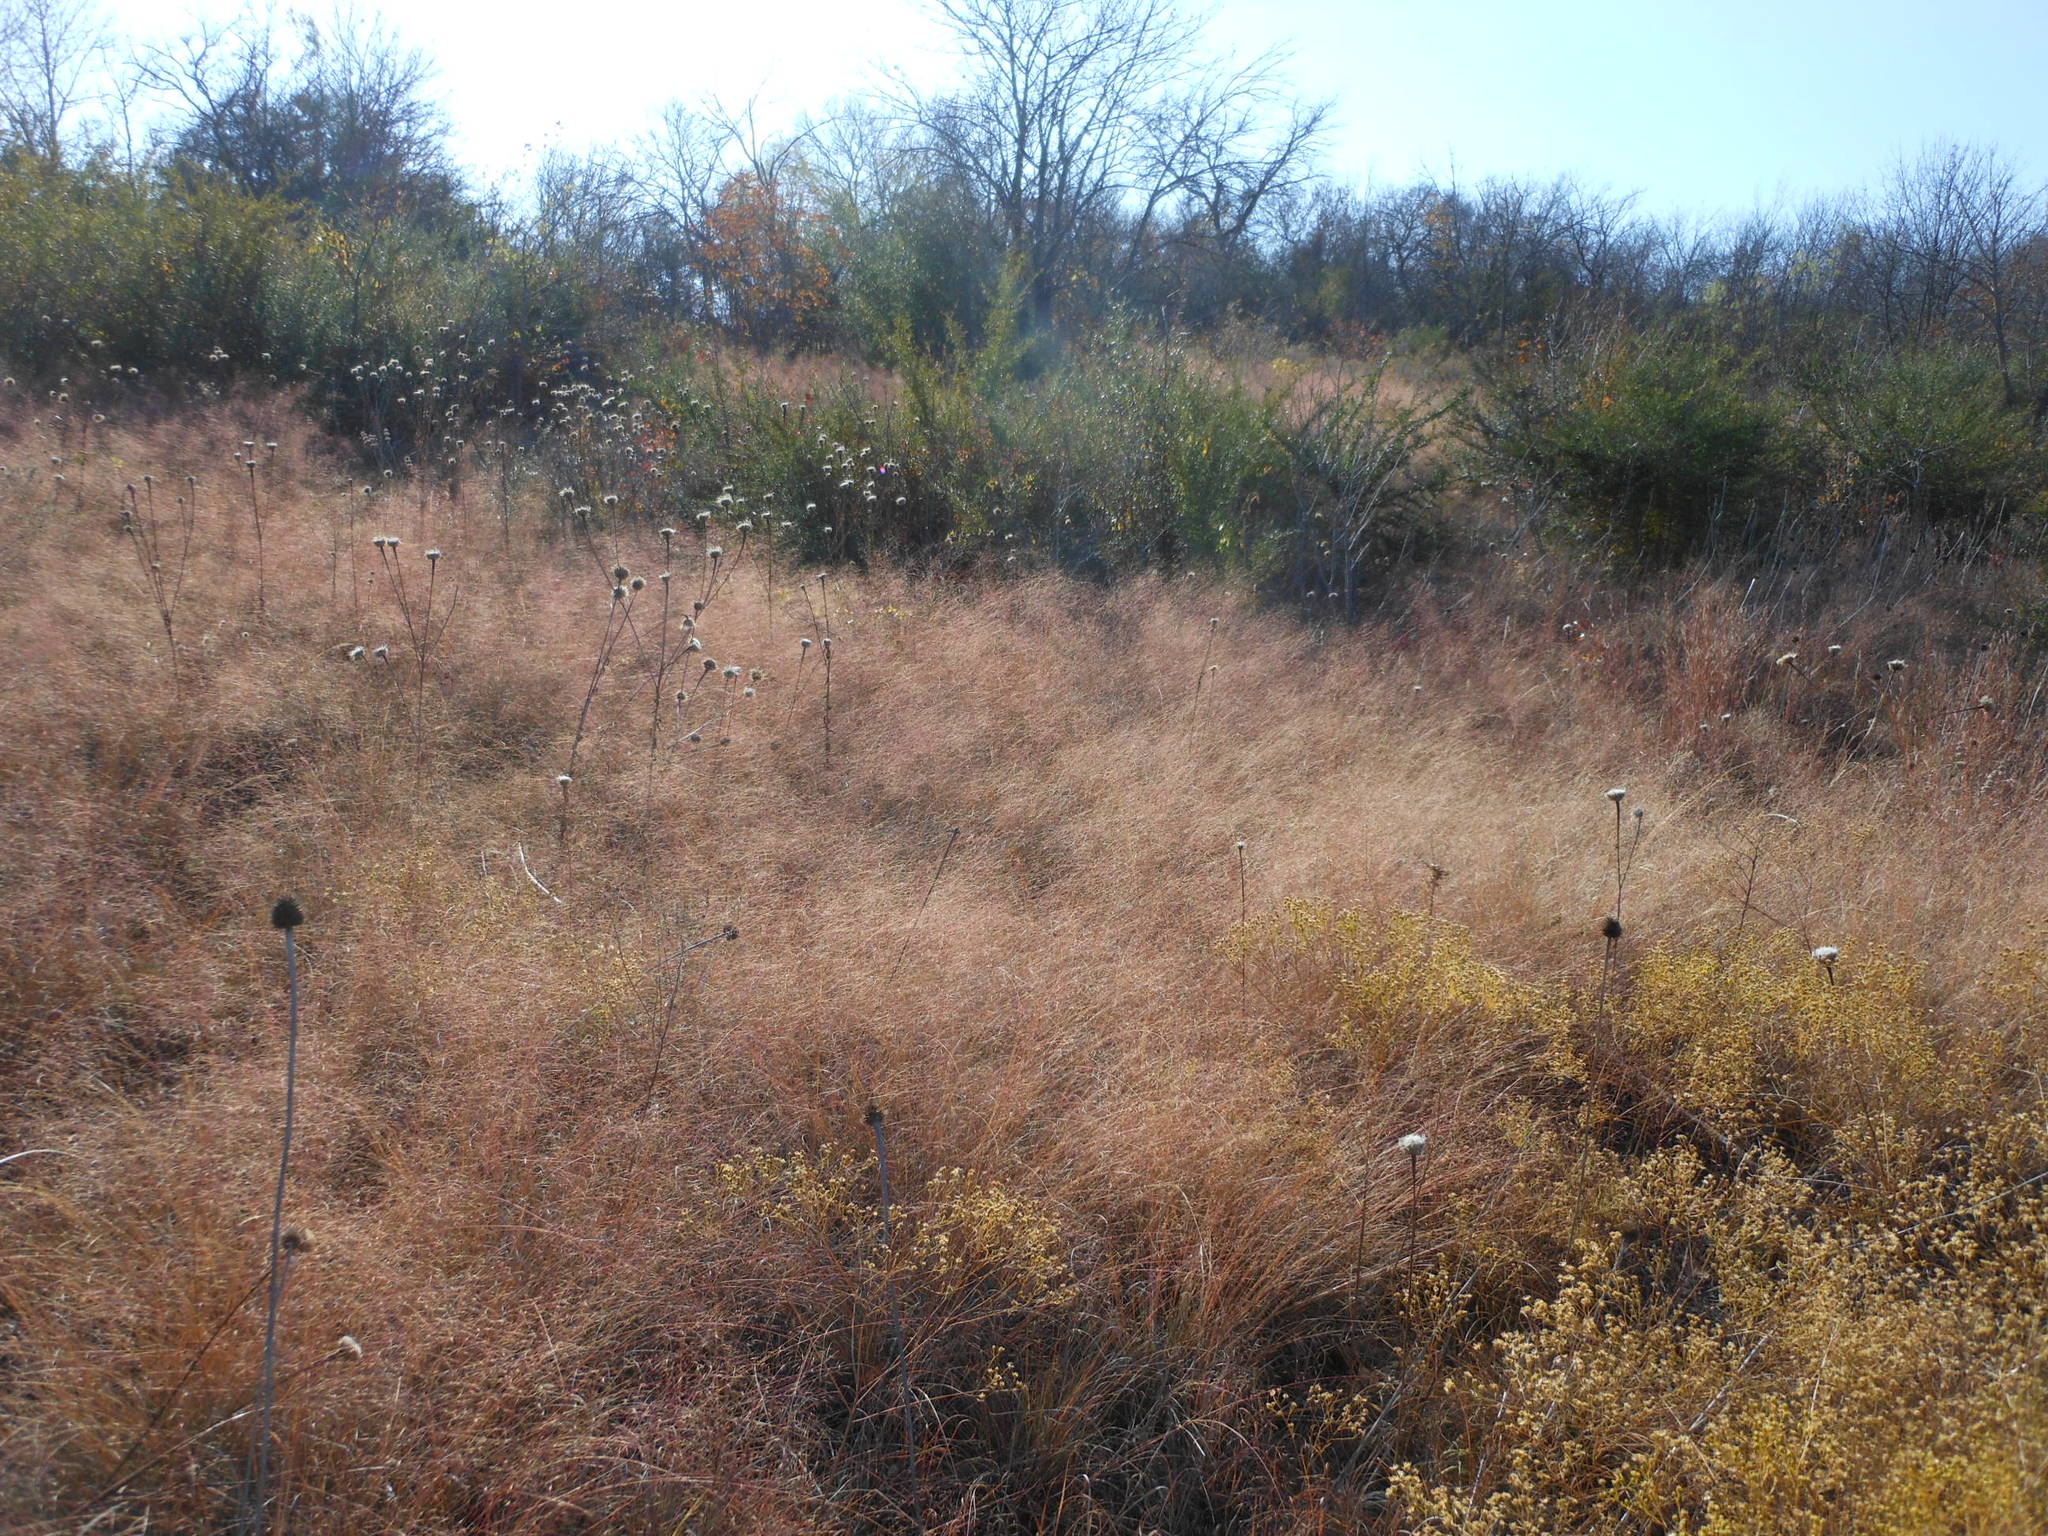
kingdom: Plantae
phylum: Tracheophyta
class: Liliopsida
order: Poales
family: Poaceae
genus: Muhlenbergia
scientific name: Muhlenbergia reverchonii
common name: Seep muhly
